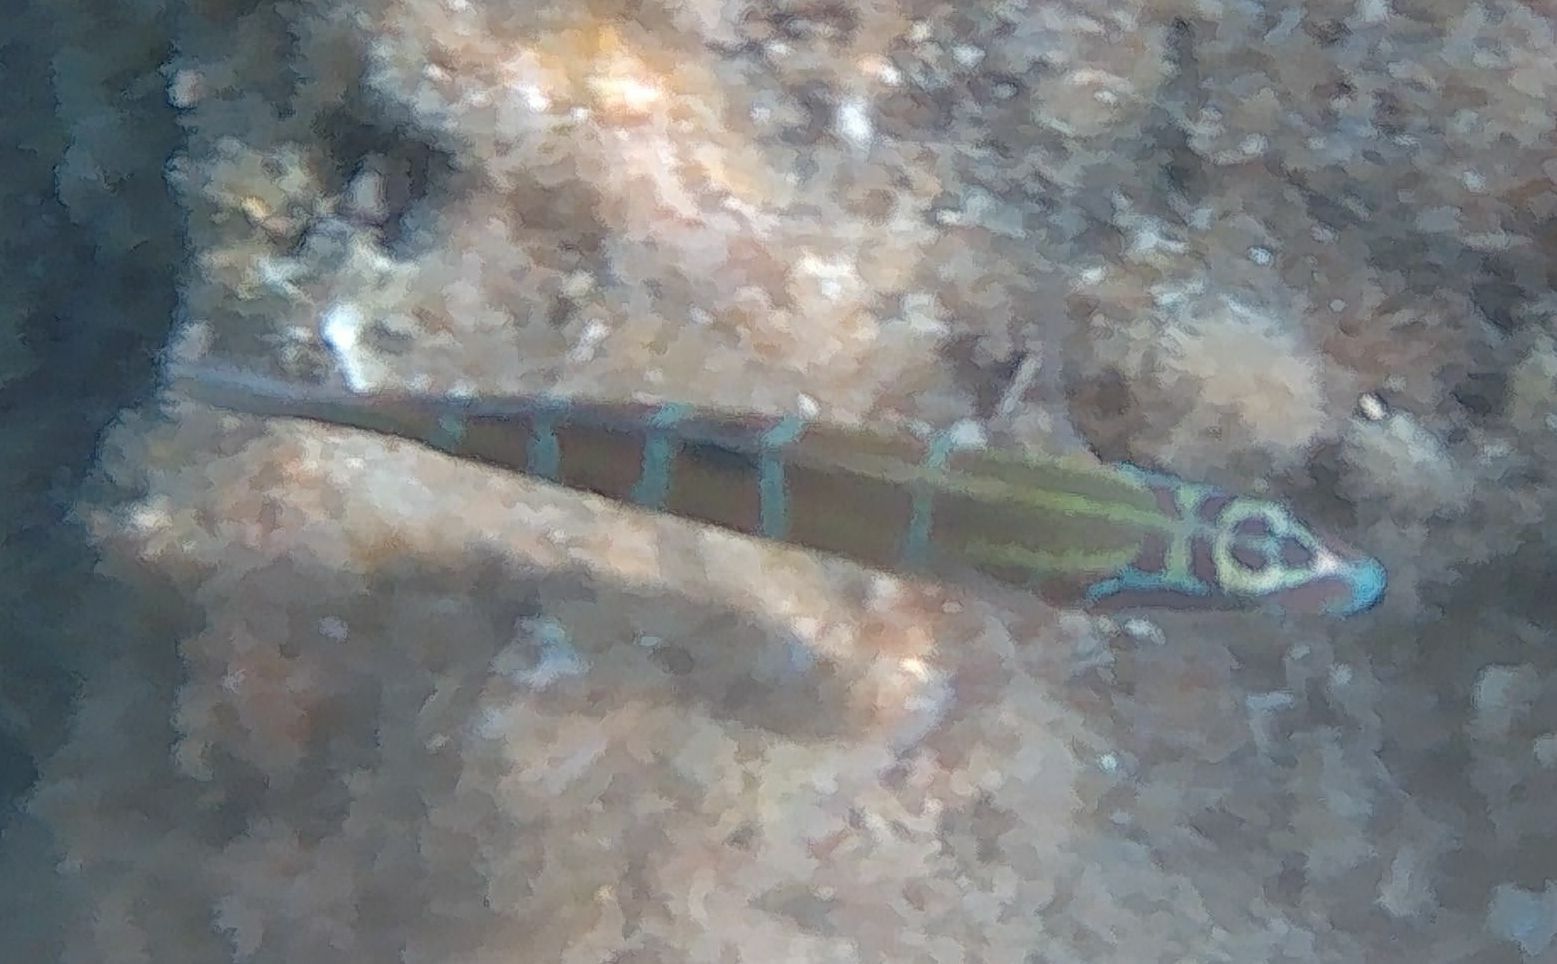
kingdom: Animalia
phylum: Chordata
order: Perciformes
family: Labridae
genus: Thalassoma
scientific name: Thalassoma pavo
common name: Ornate wrasse
